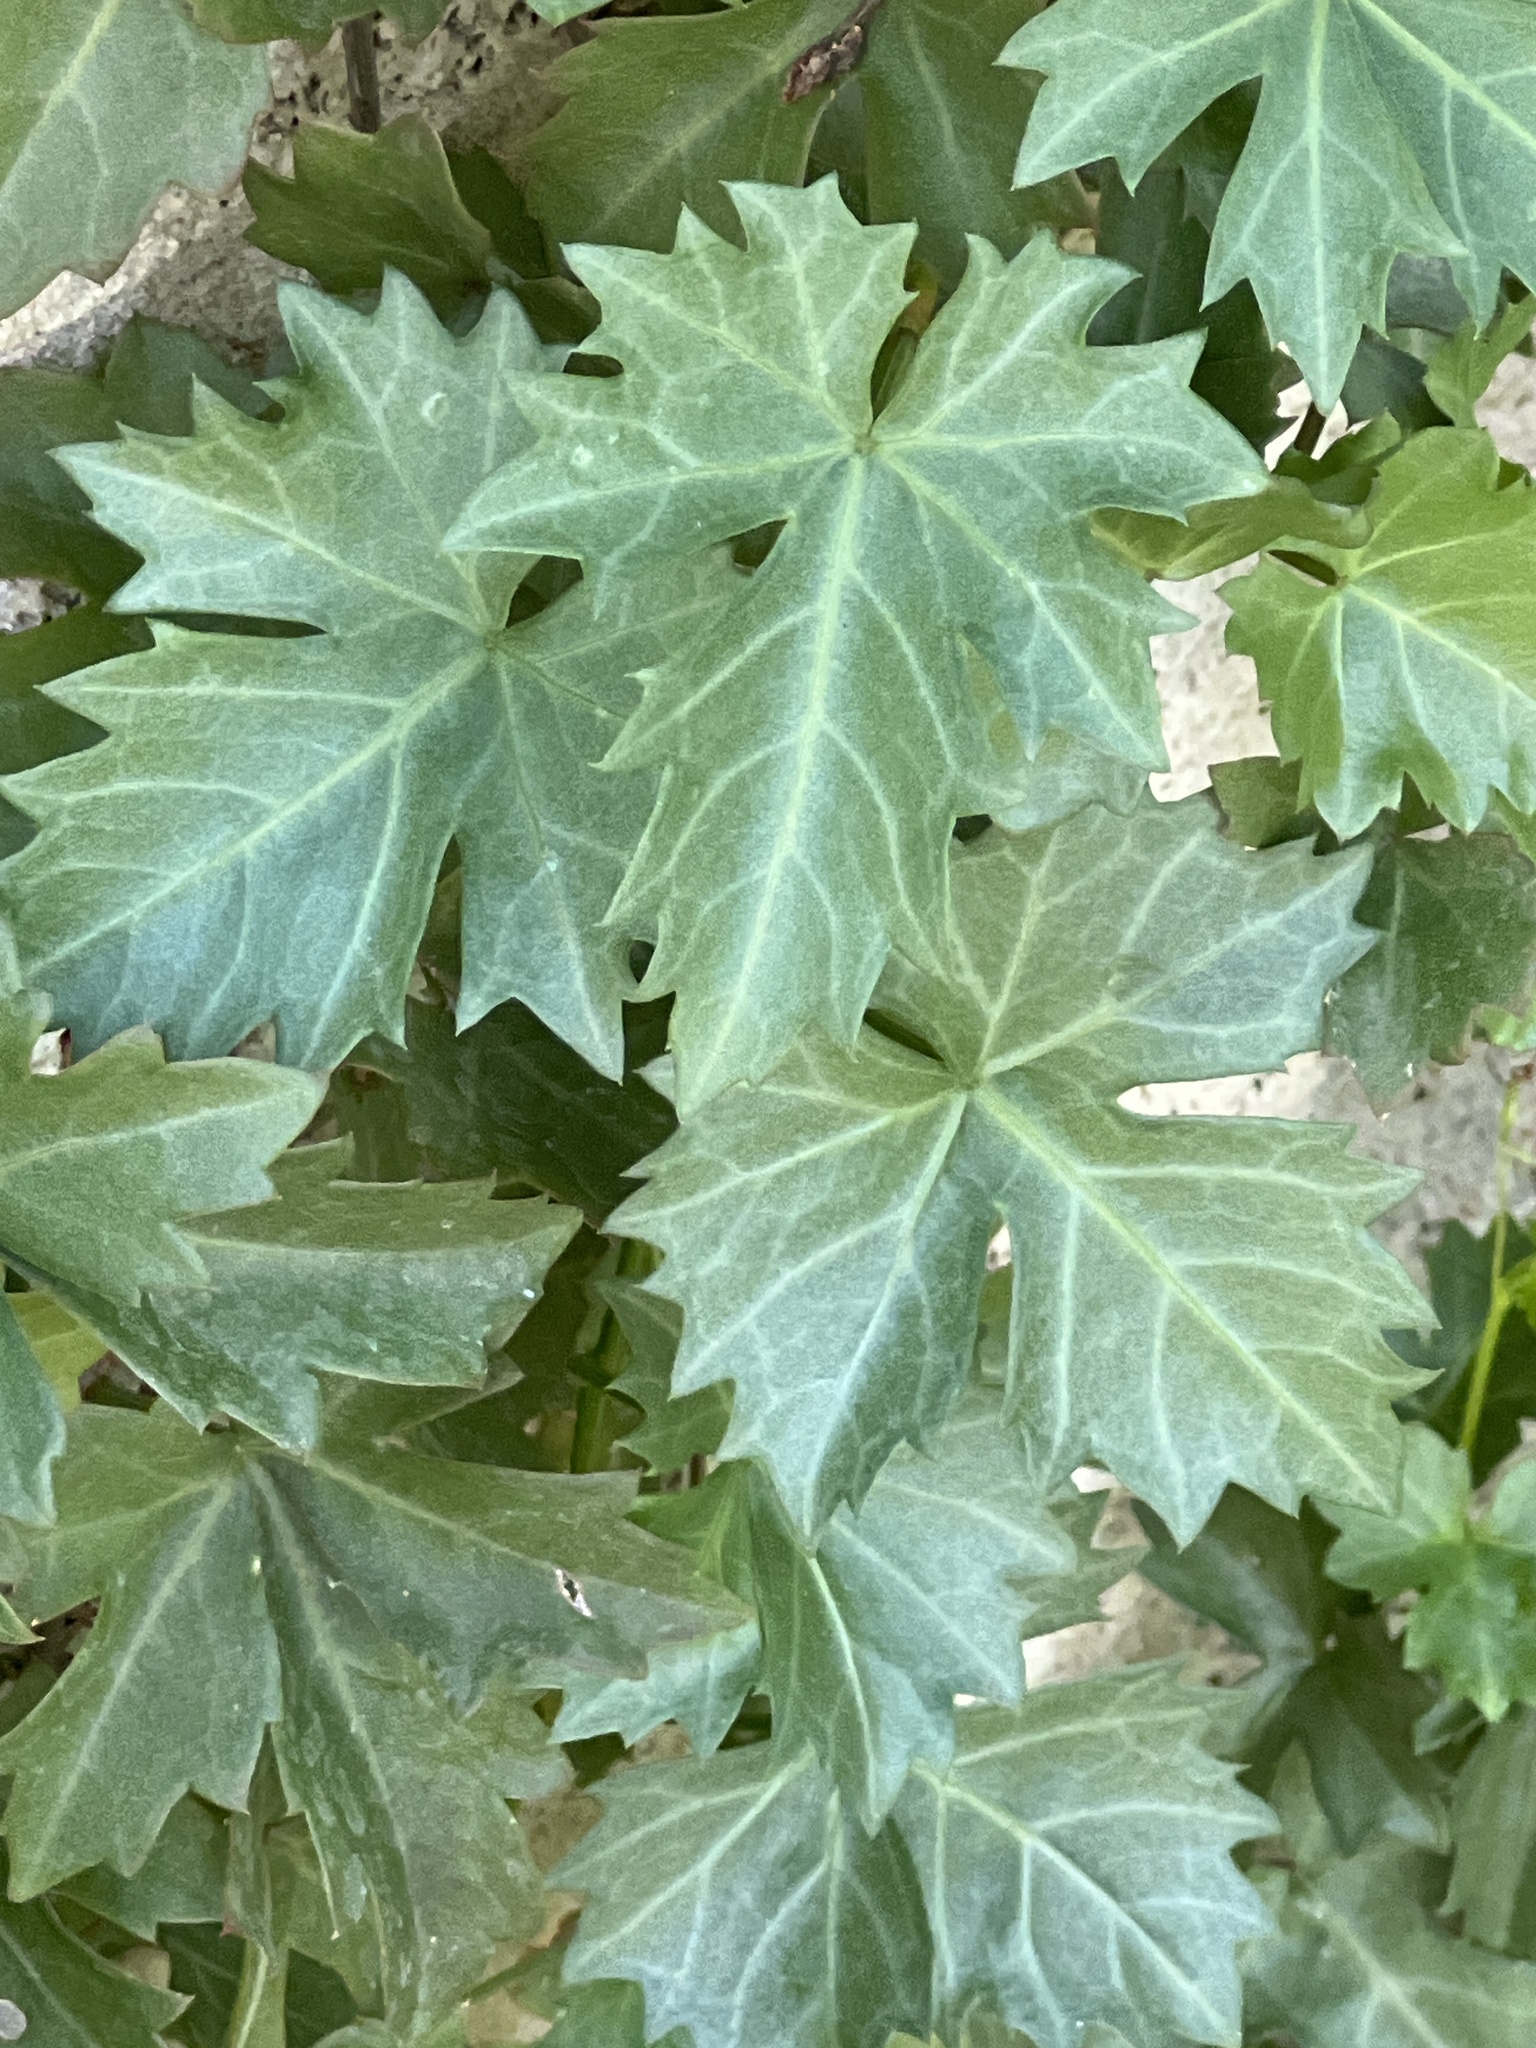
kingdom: Plantae
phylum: Tracheophyta
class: Magnoliopsida
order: Vitales
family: Vitaceae
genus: Cissus
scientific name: Cissus trifoliata
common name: Vine-sorrel
